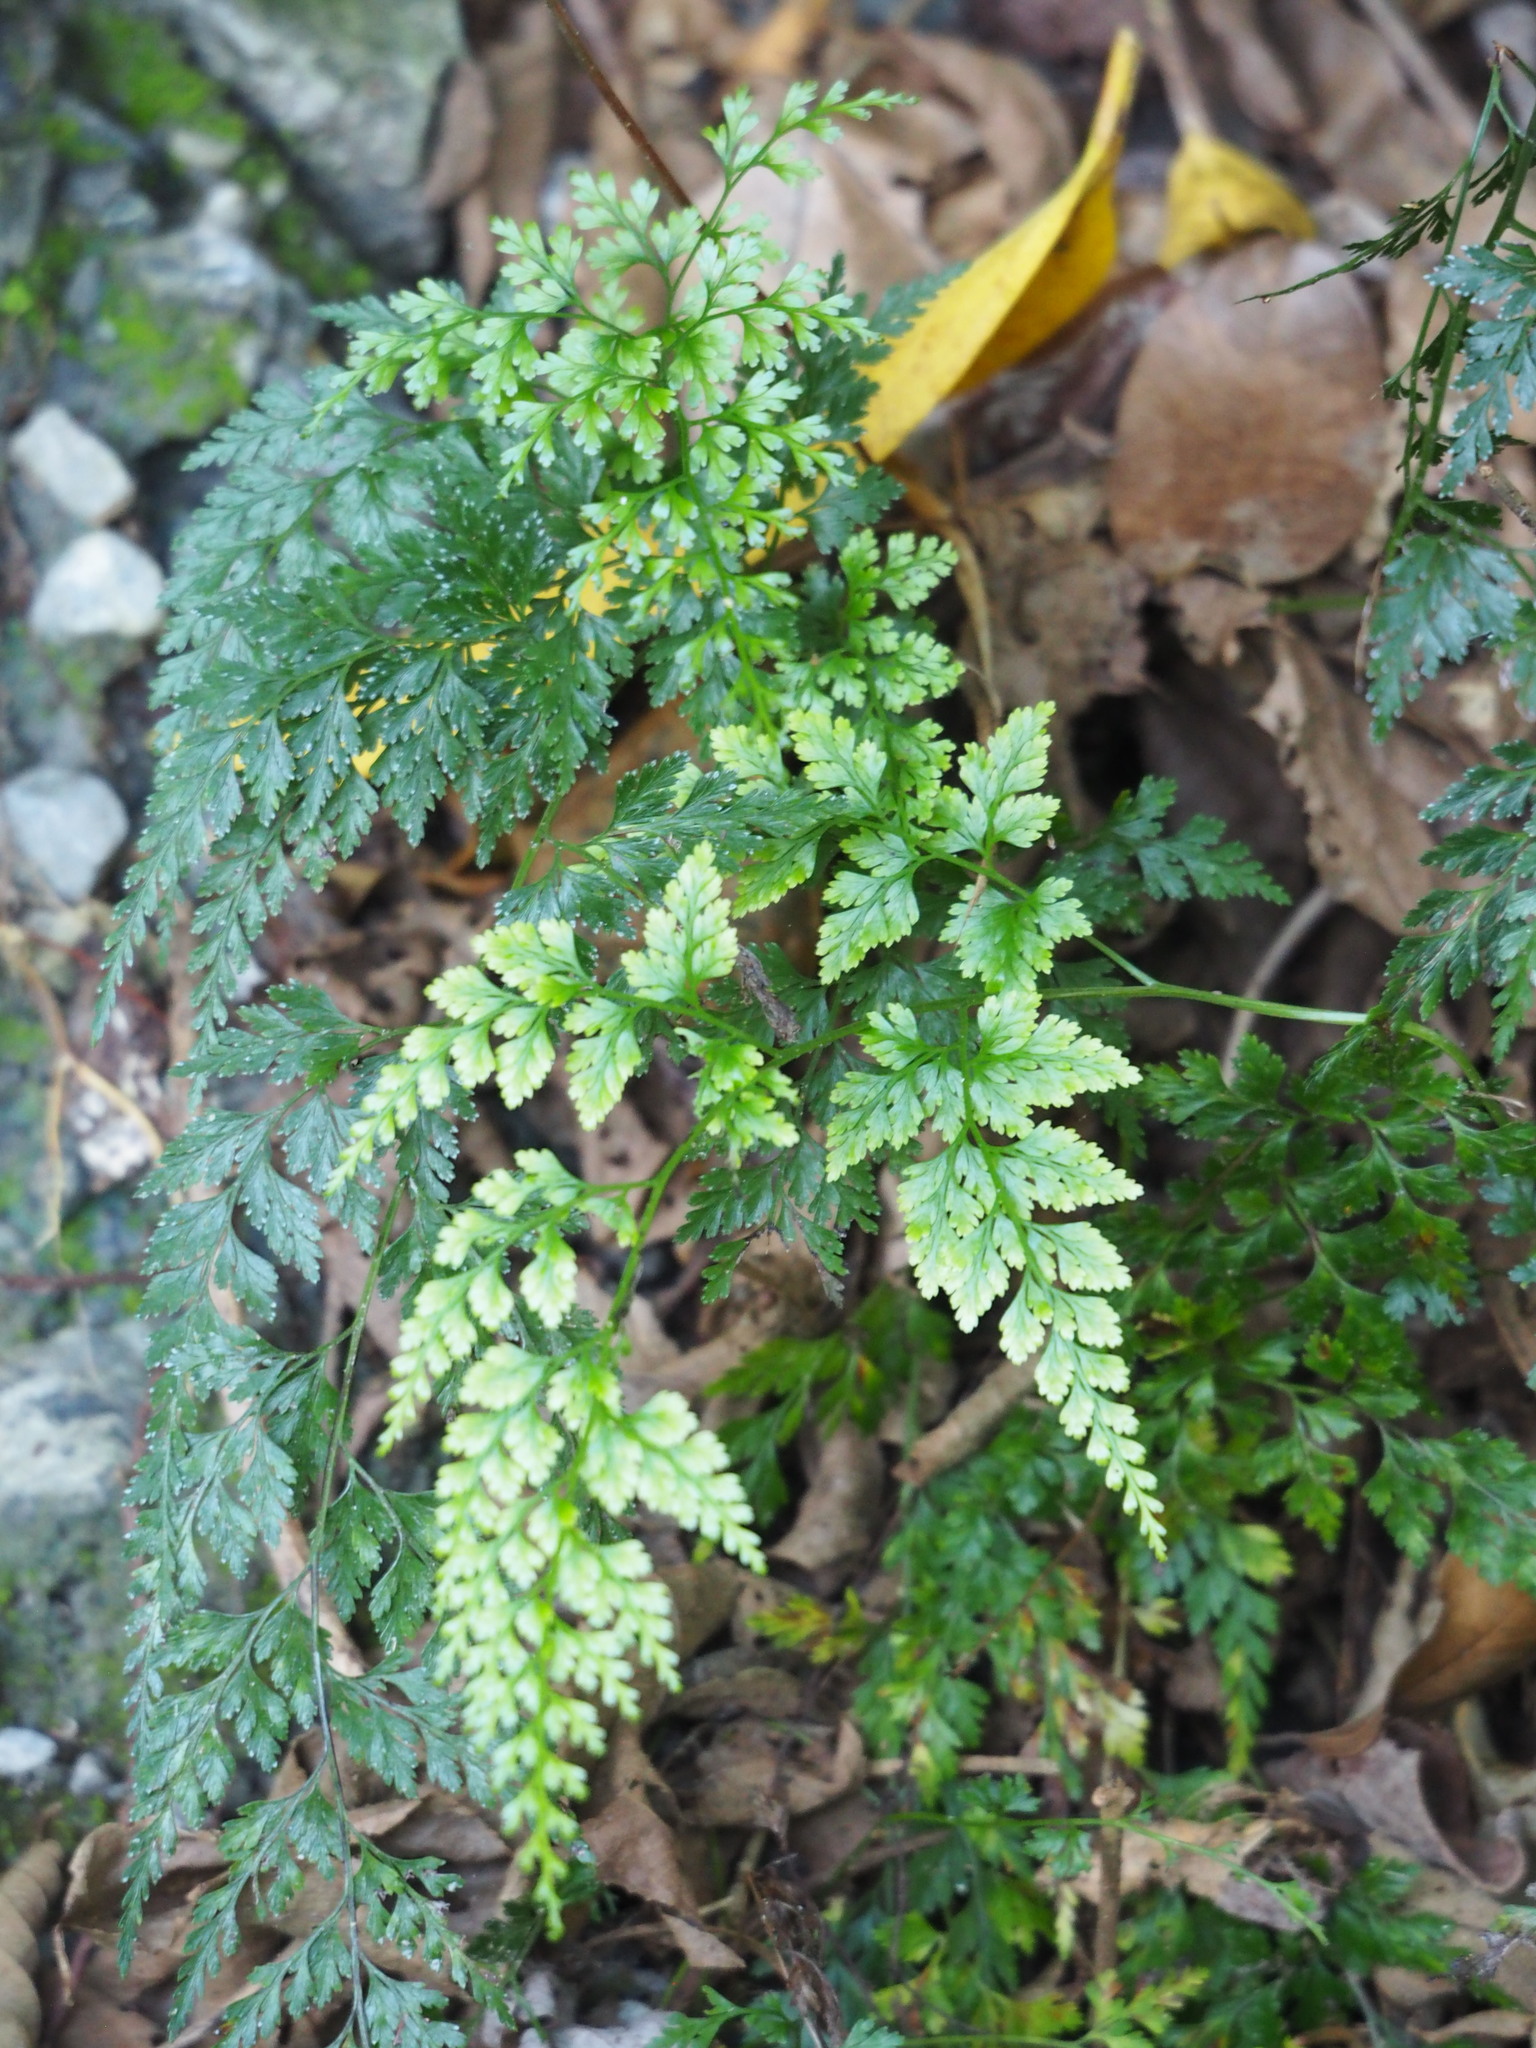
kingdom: Plantae
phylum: Tracheophyta
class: Polypodiopsida
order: Polypodiales
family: Pteridaceae
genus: Onychium
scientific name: Onychium japonicum
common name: Carrot fern
